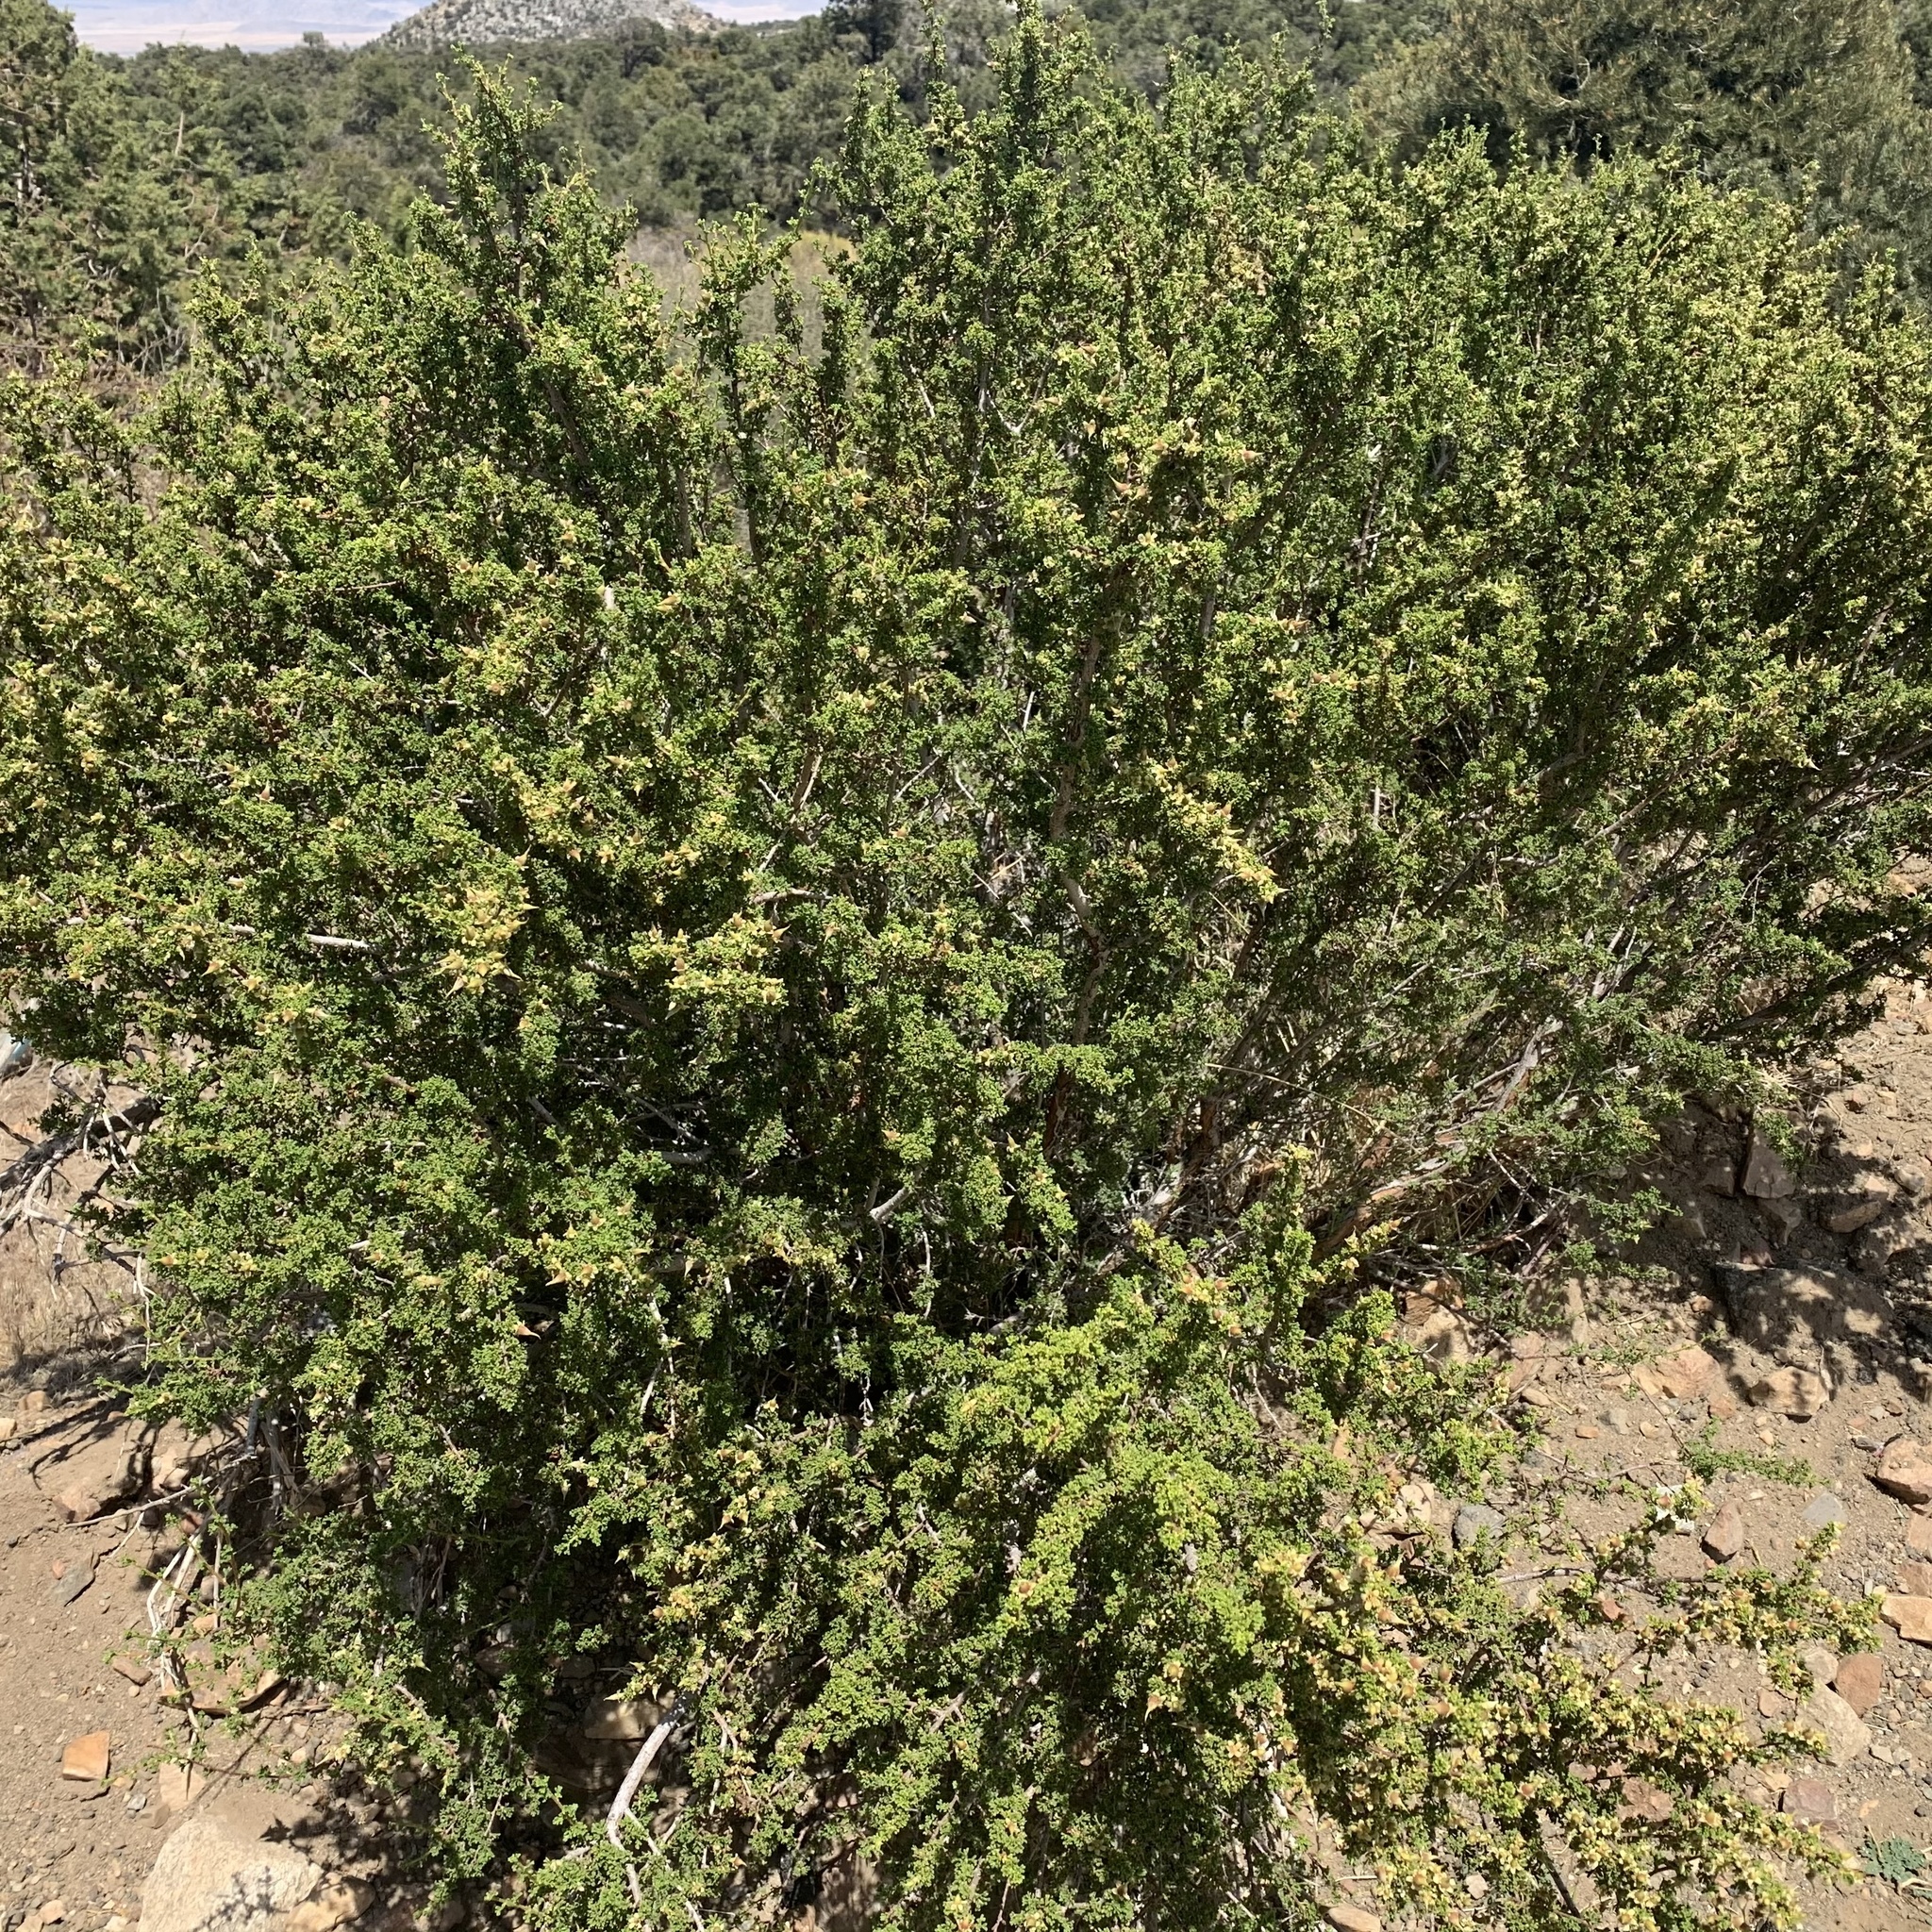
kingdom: Plantae
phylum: Tracheophyta
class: Magnoliopsida
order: Rosales
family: Rosaceae
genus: Purshia
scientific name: Purshia glandulosa
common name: Desert bitterbrush
